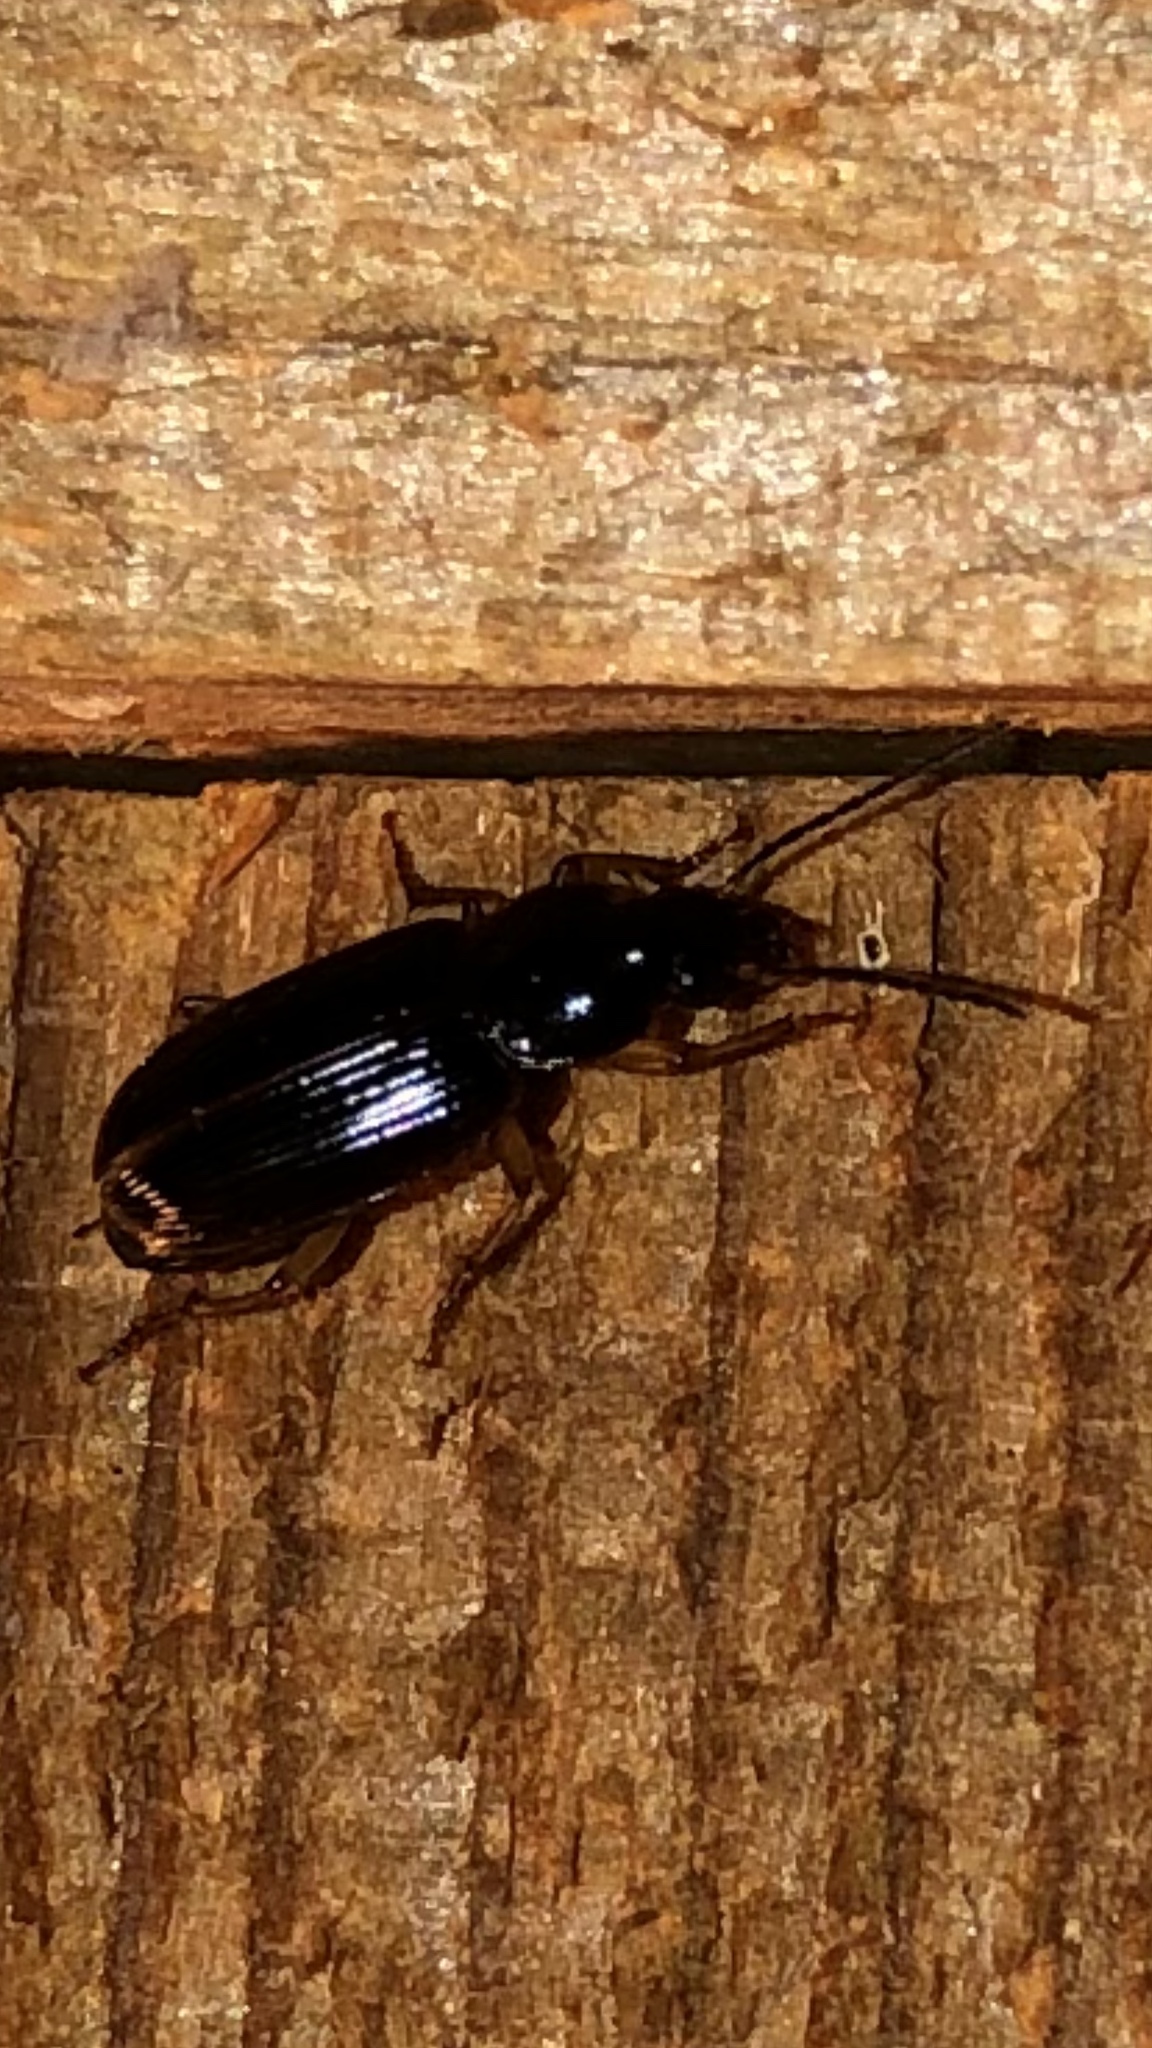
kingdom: Animalia
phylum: Arthropoda
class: Insecta
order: Coleoptera
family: Carabidae
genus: Stenolophus
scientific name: Stenolophus ochropezus
